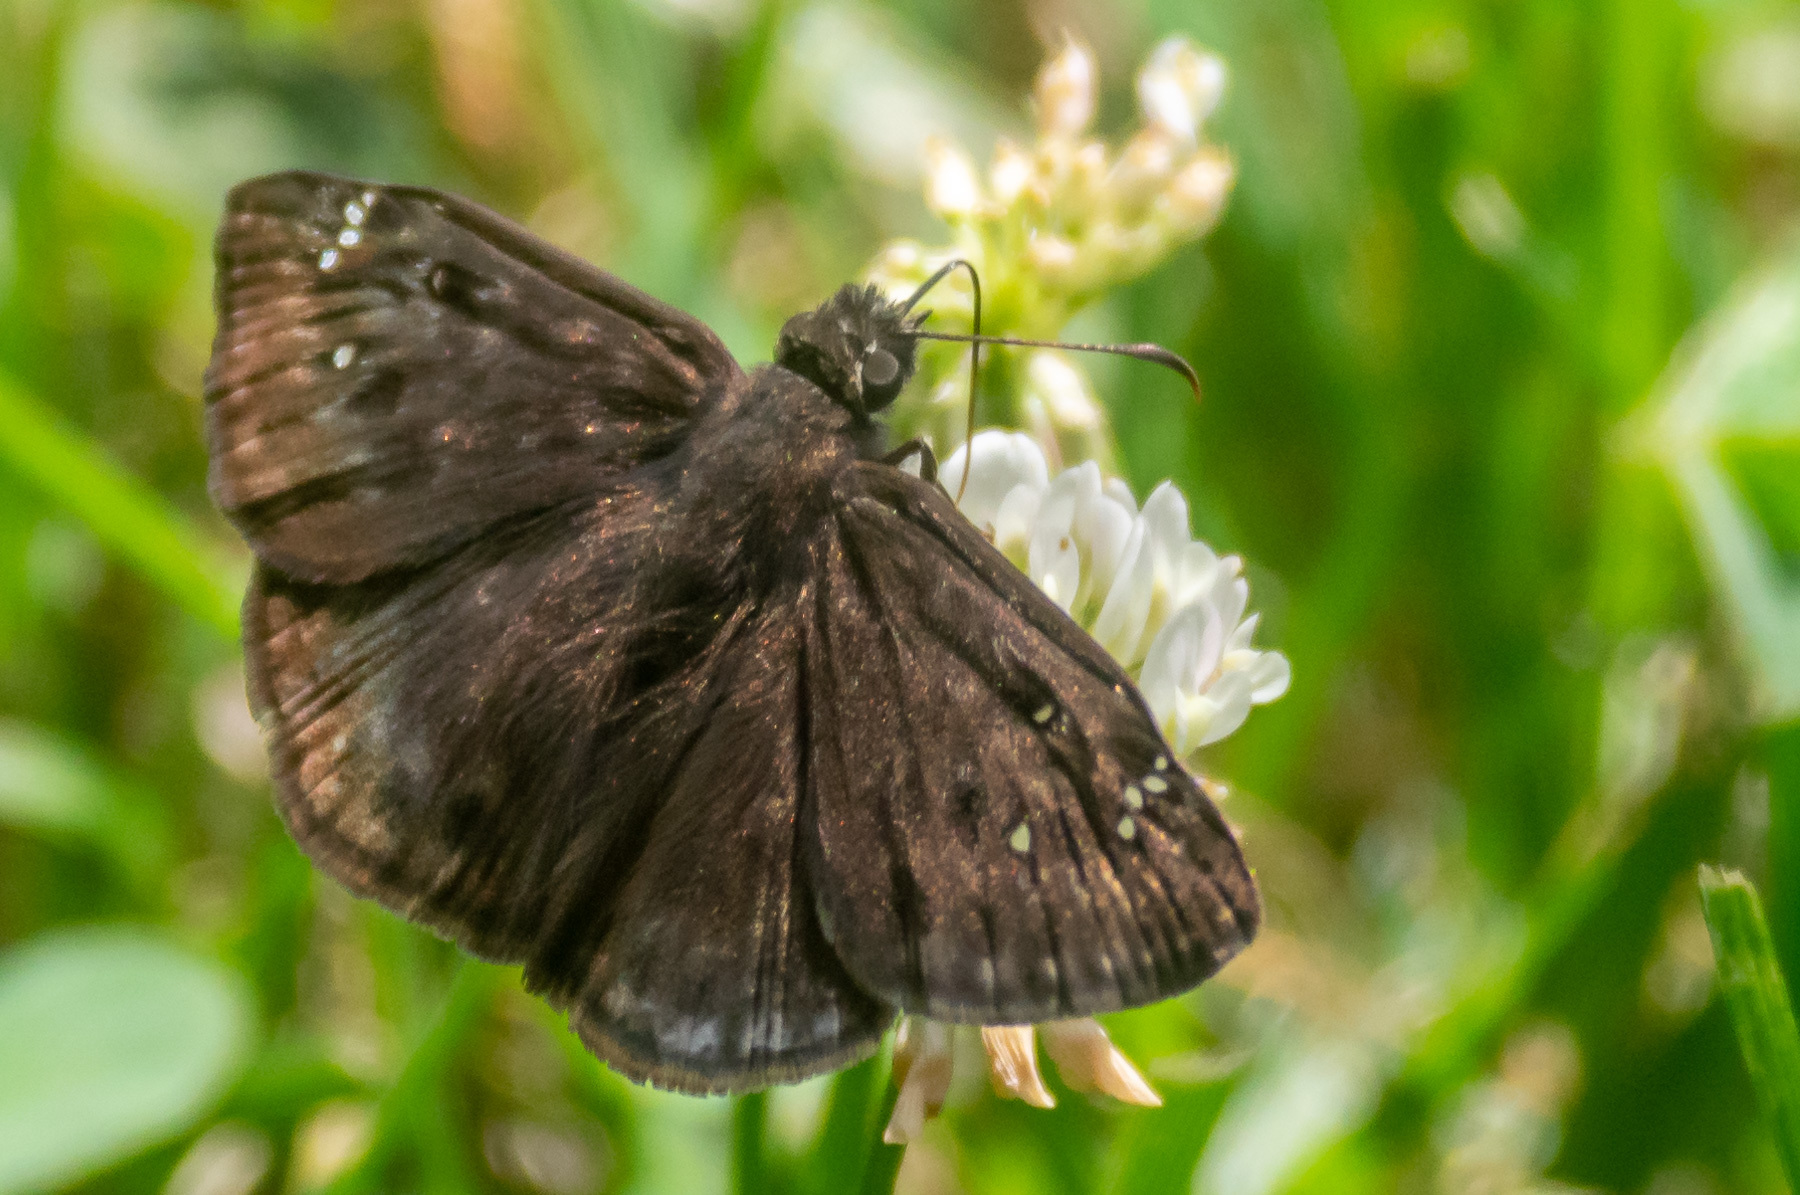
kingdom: Animalia
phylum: Arthropoda
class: Insecta
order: Lepidoptera
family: Hesperiidae
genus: Erynnis
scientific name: Erynnis horatius
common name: Horace's duskywing
